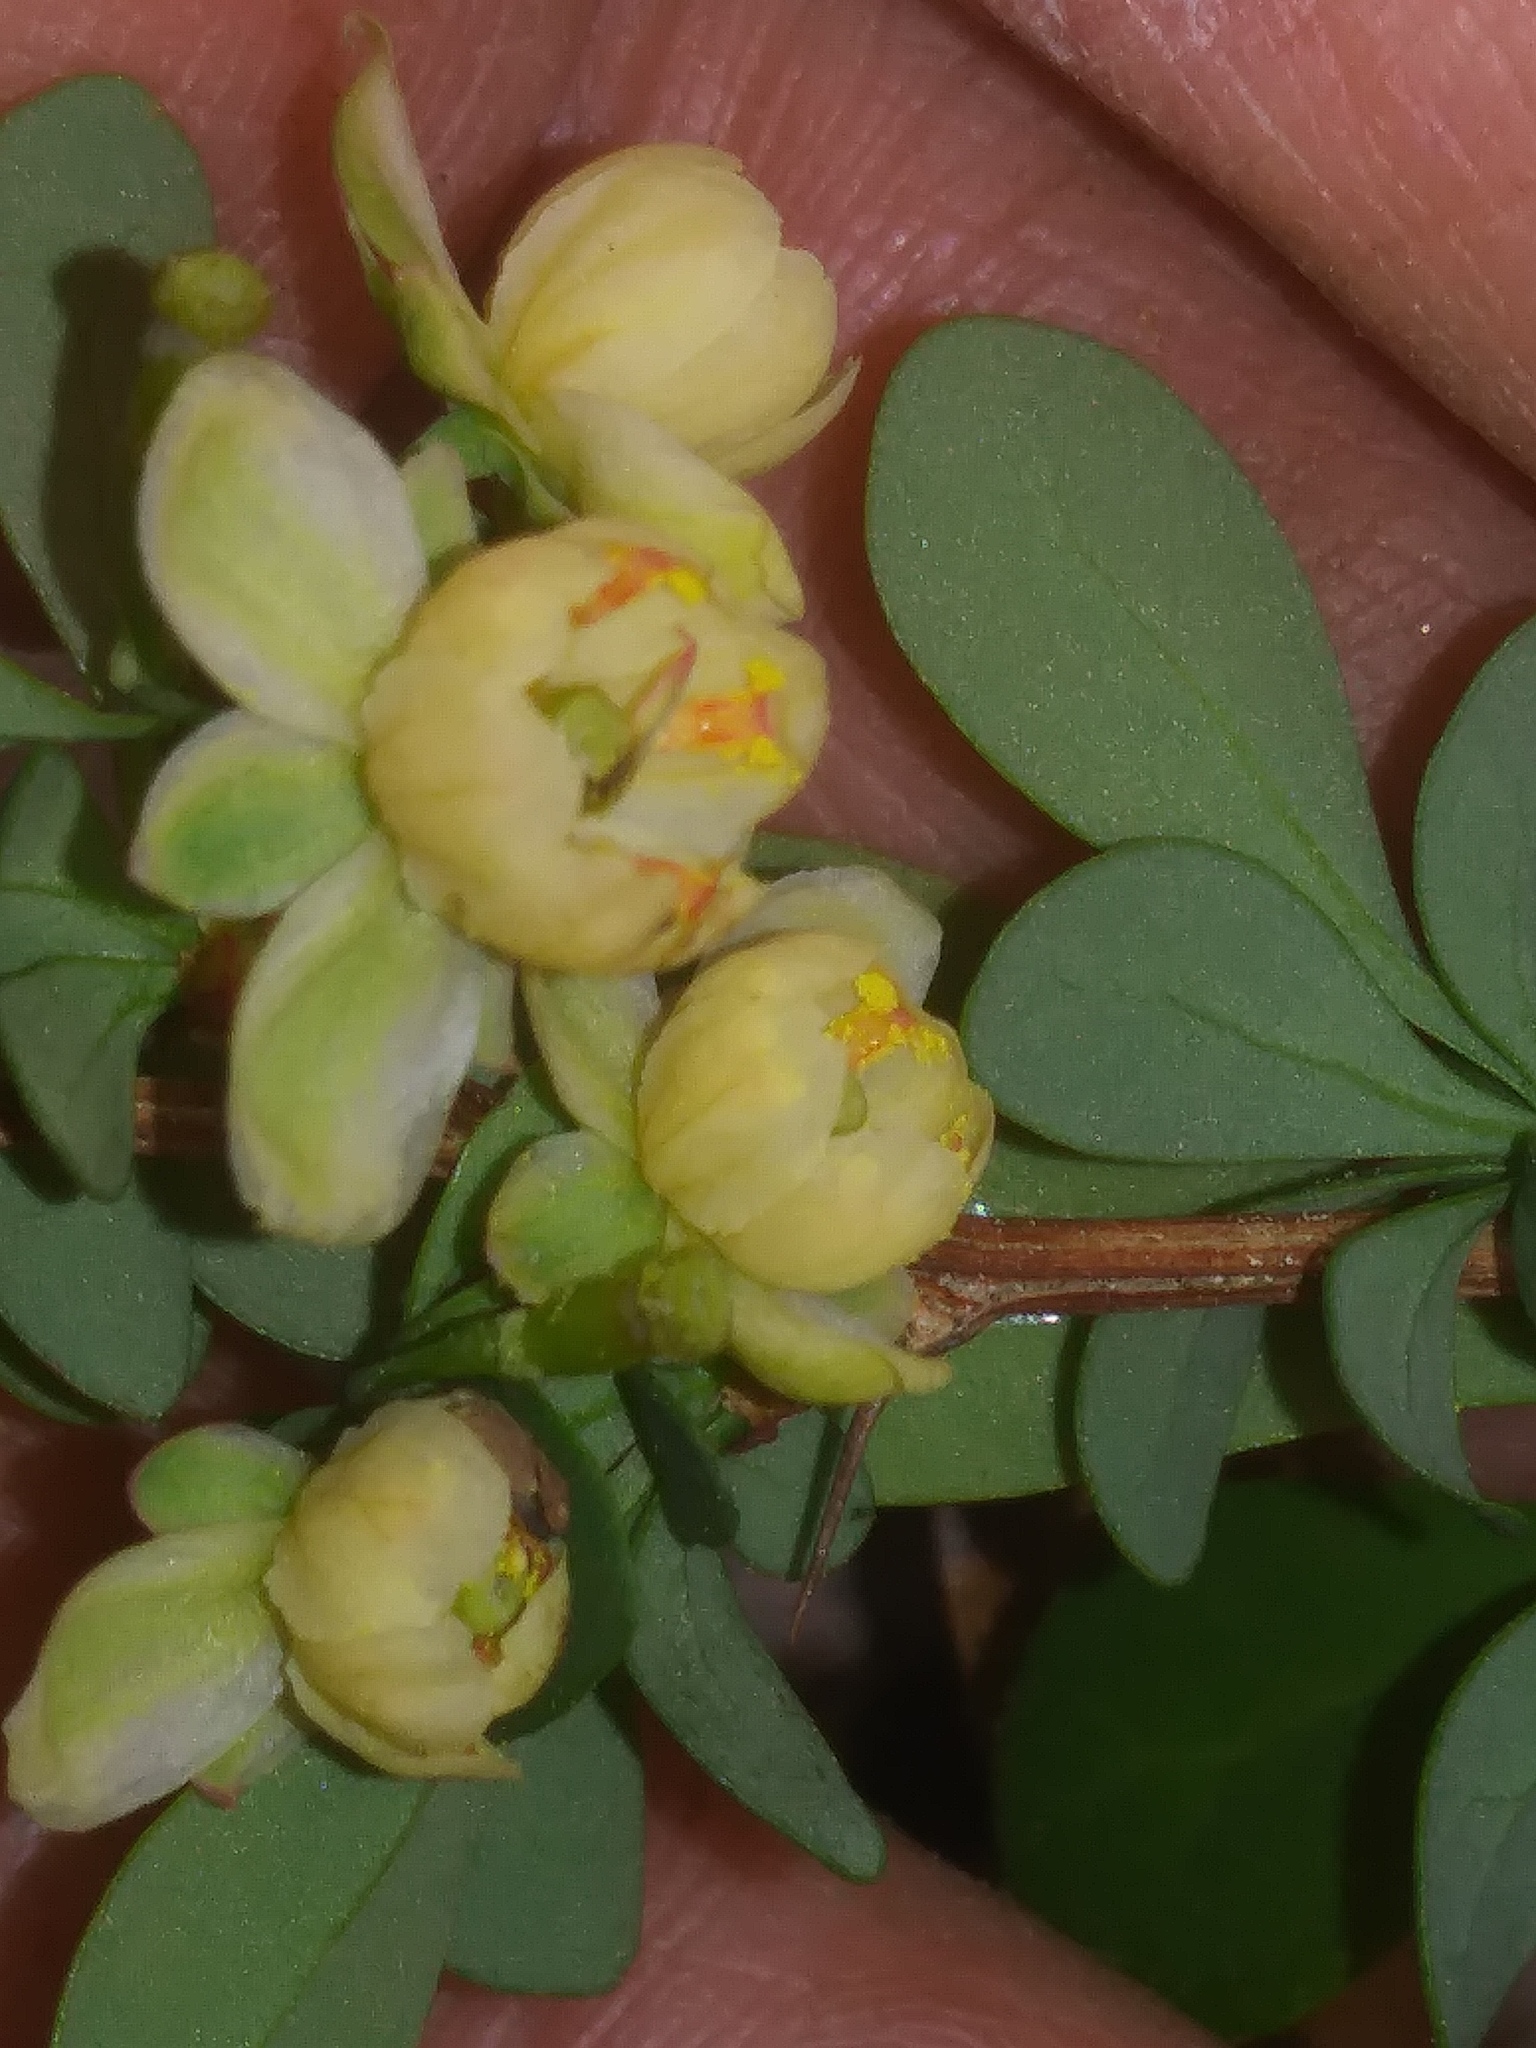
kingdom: Plantae
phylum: Tracheophyta
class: Magnoliopsida
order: Ranunculales
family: Berberidaceae
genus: Berberis
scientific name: Berberis thunbergii
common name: Japanese barberry
